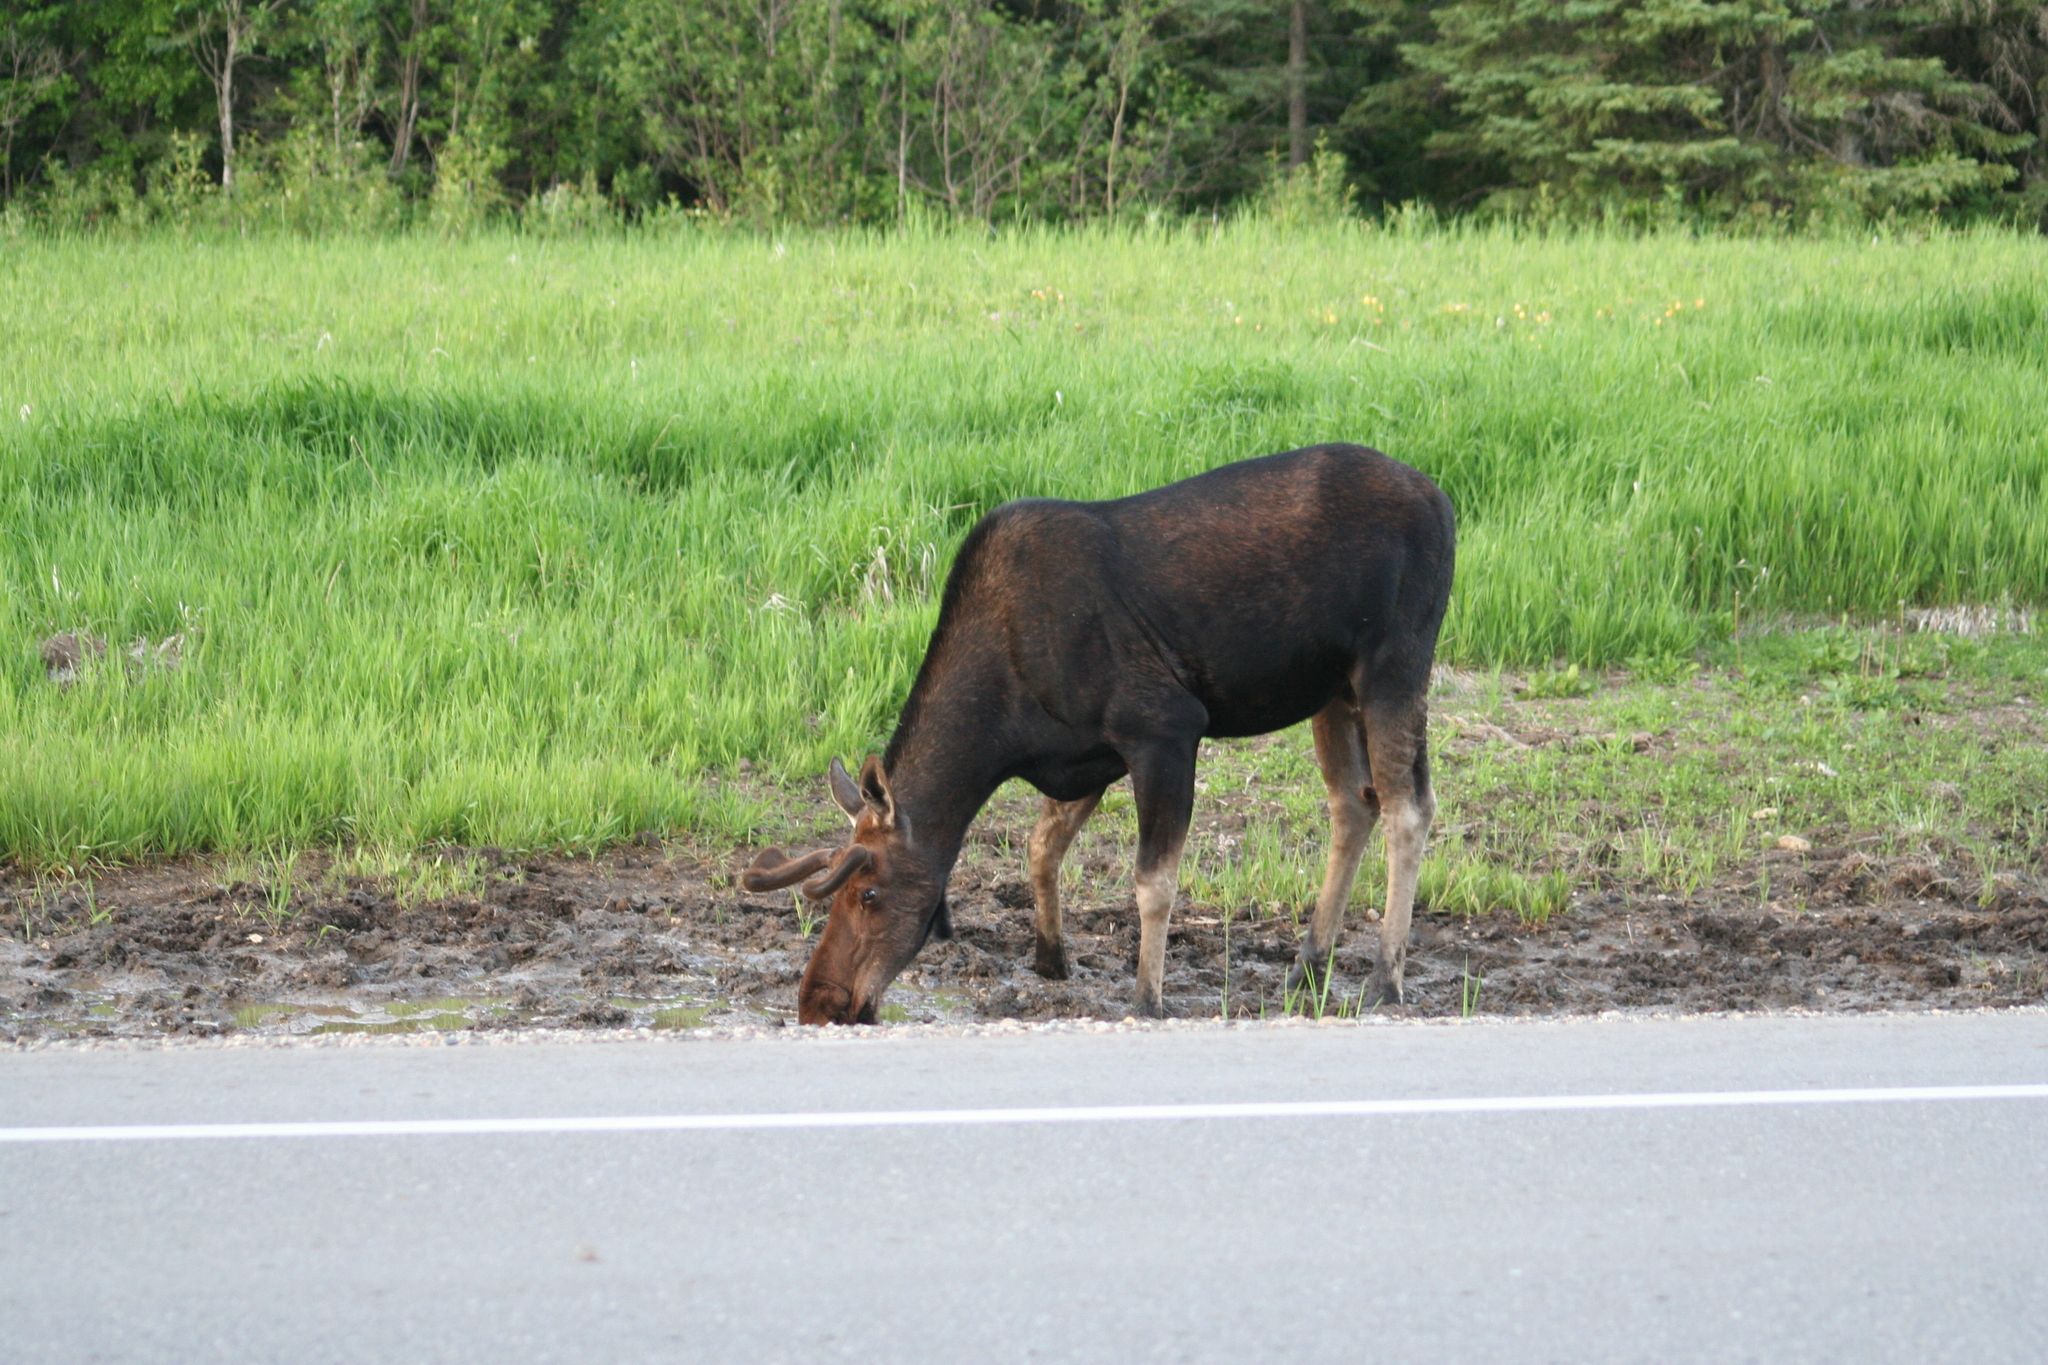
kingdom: Animalia
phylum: Chordata
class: Mammalia
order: Artiodactyla
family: Cervidae
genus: Alces
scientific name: Alces americanus
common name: Moose
